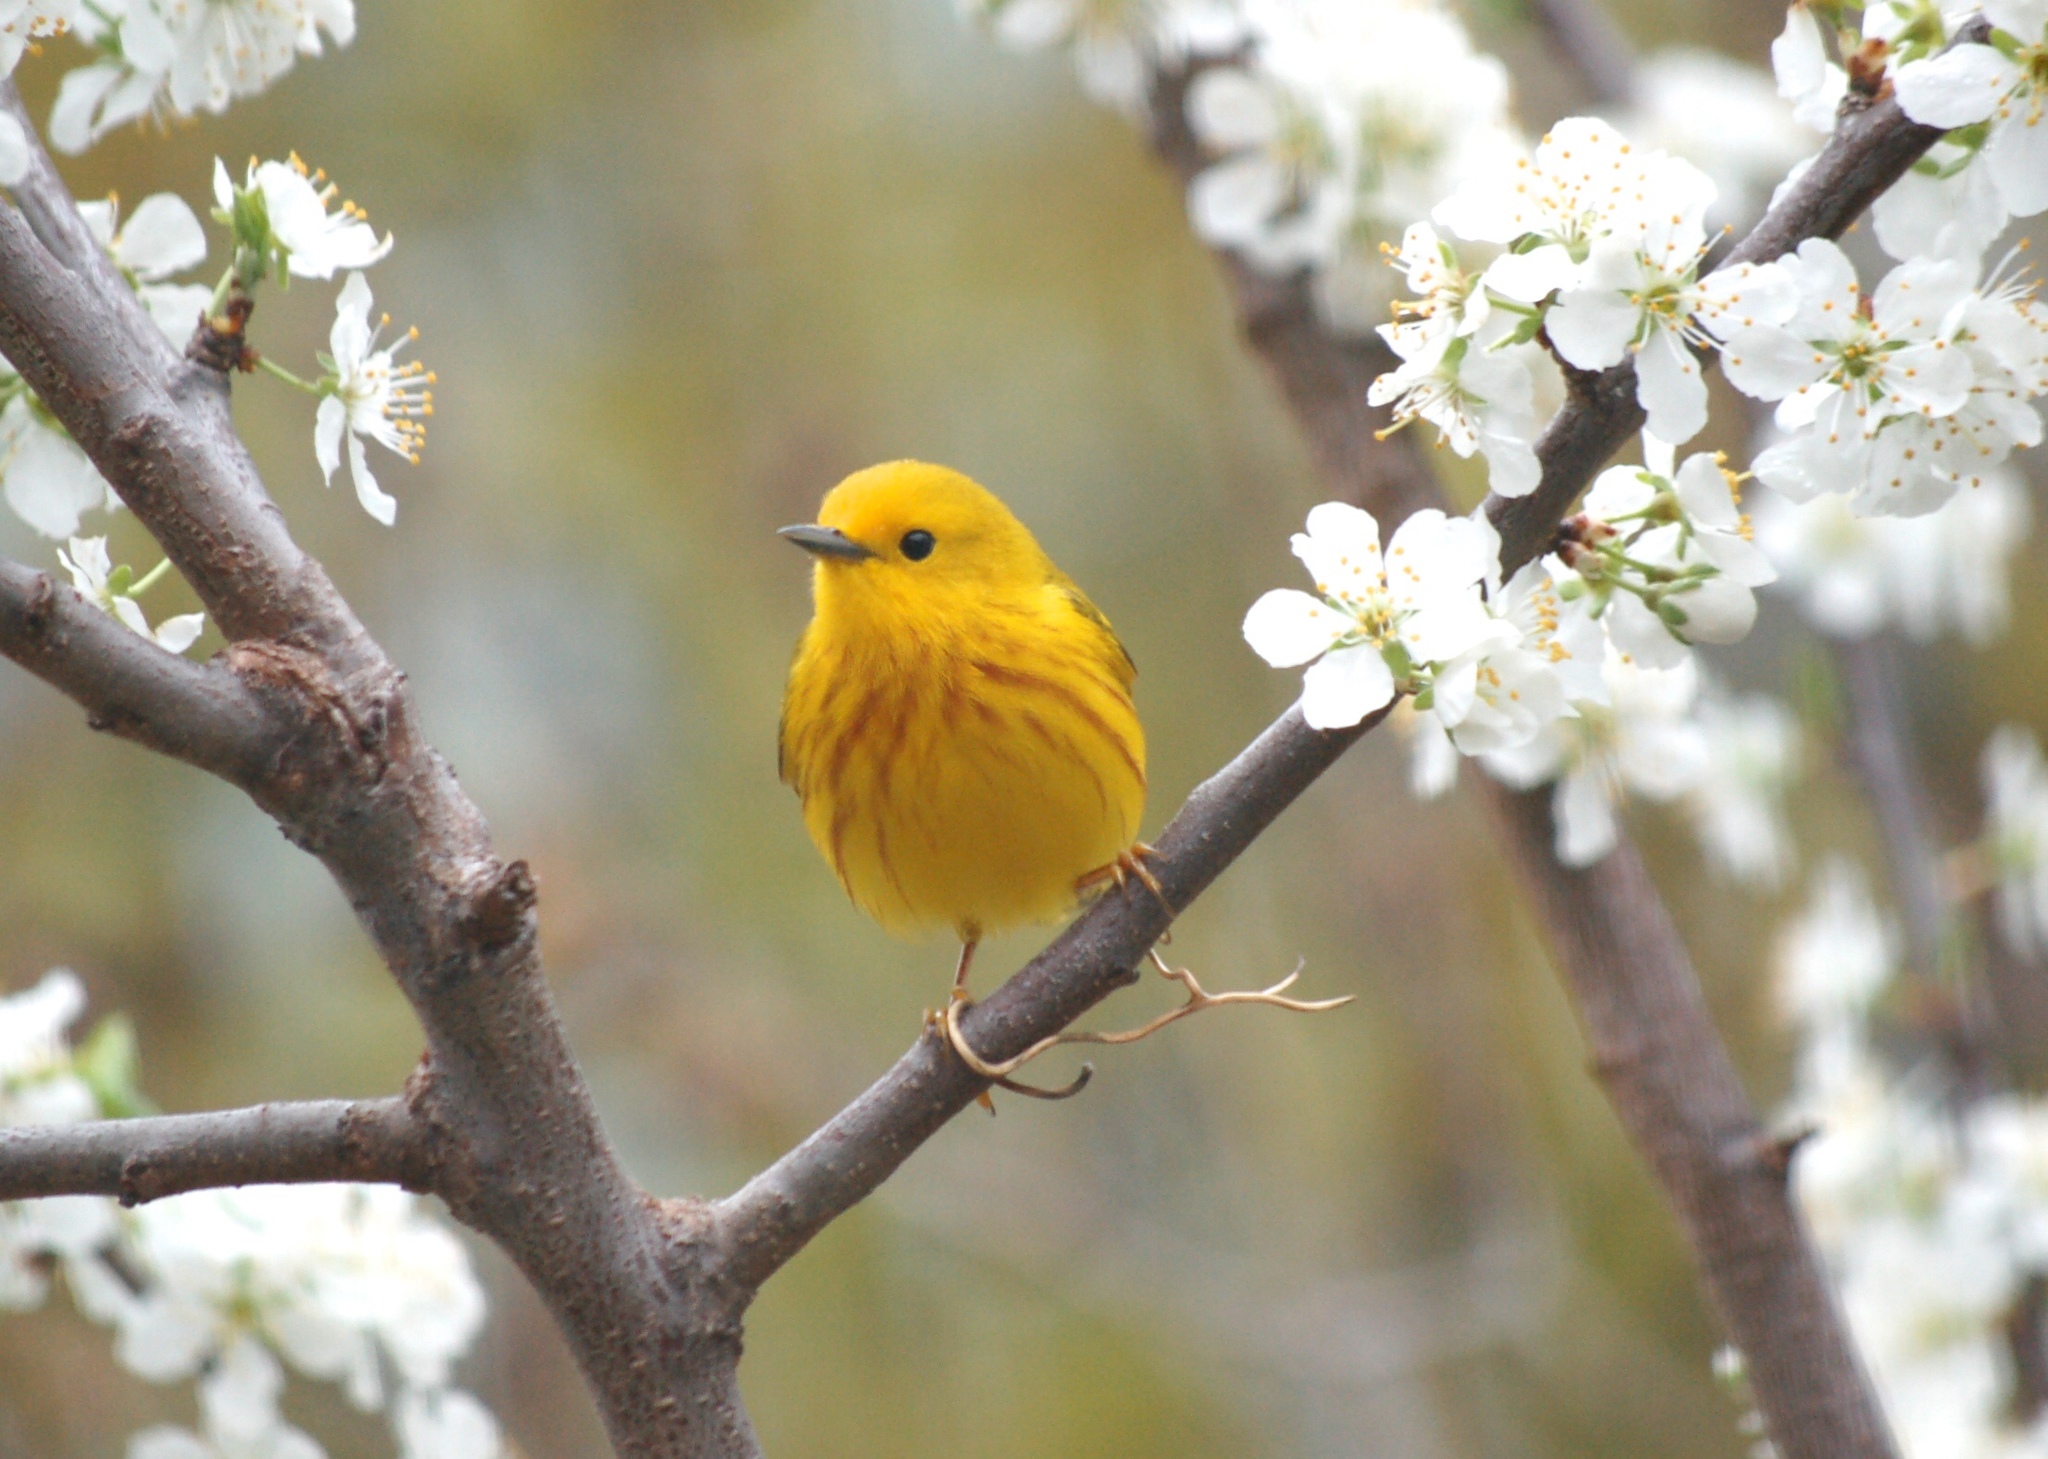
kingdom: Animalia
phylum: Chordata
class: Aves
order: Passeriformes
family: Parulidae
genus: Setophaga
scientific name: Setophaga petechia
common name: Yellow warbler
